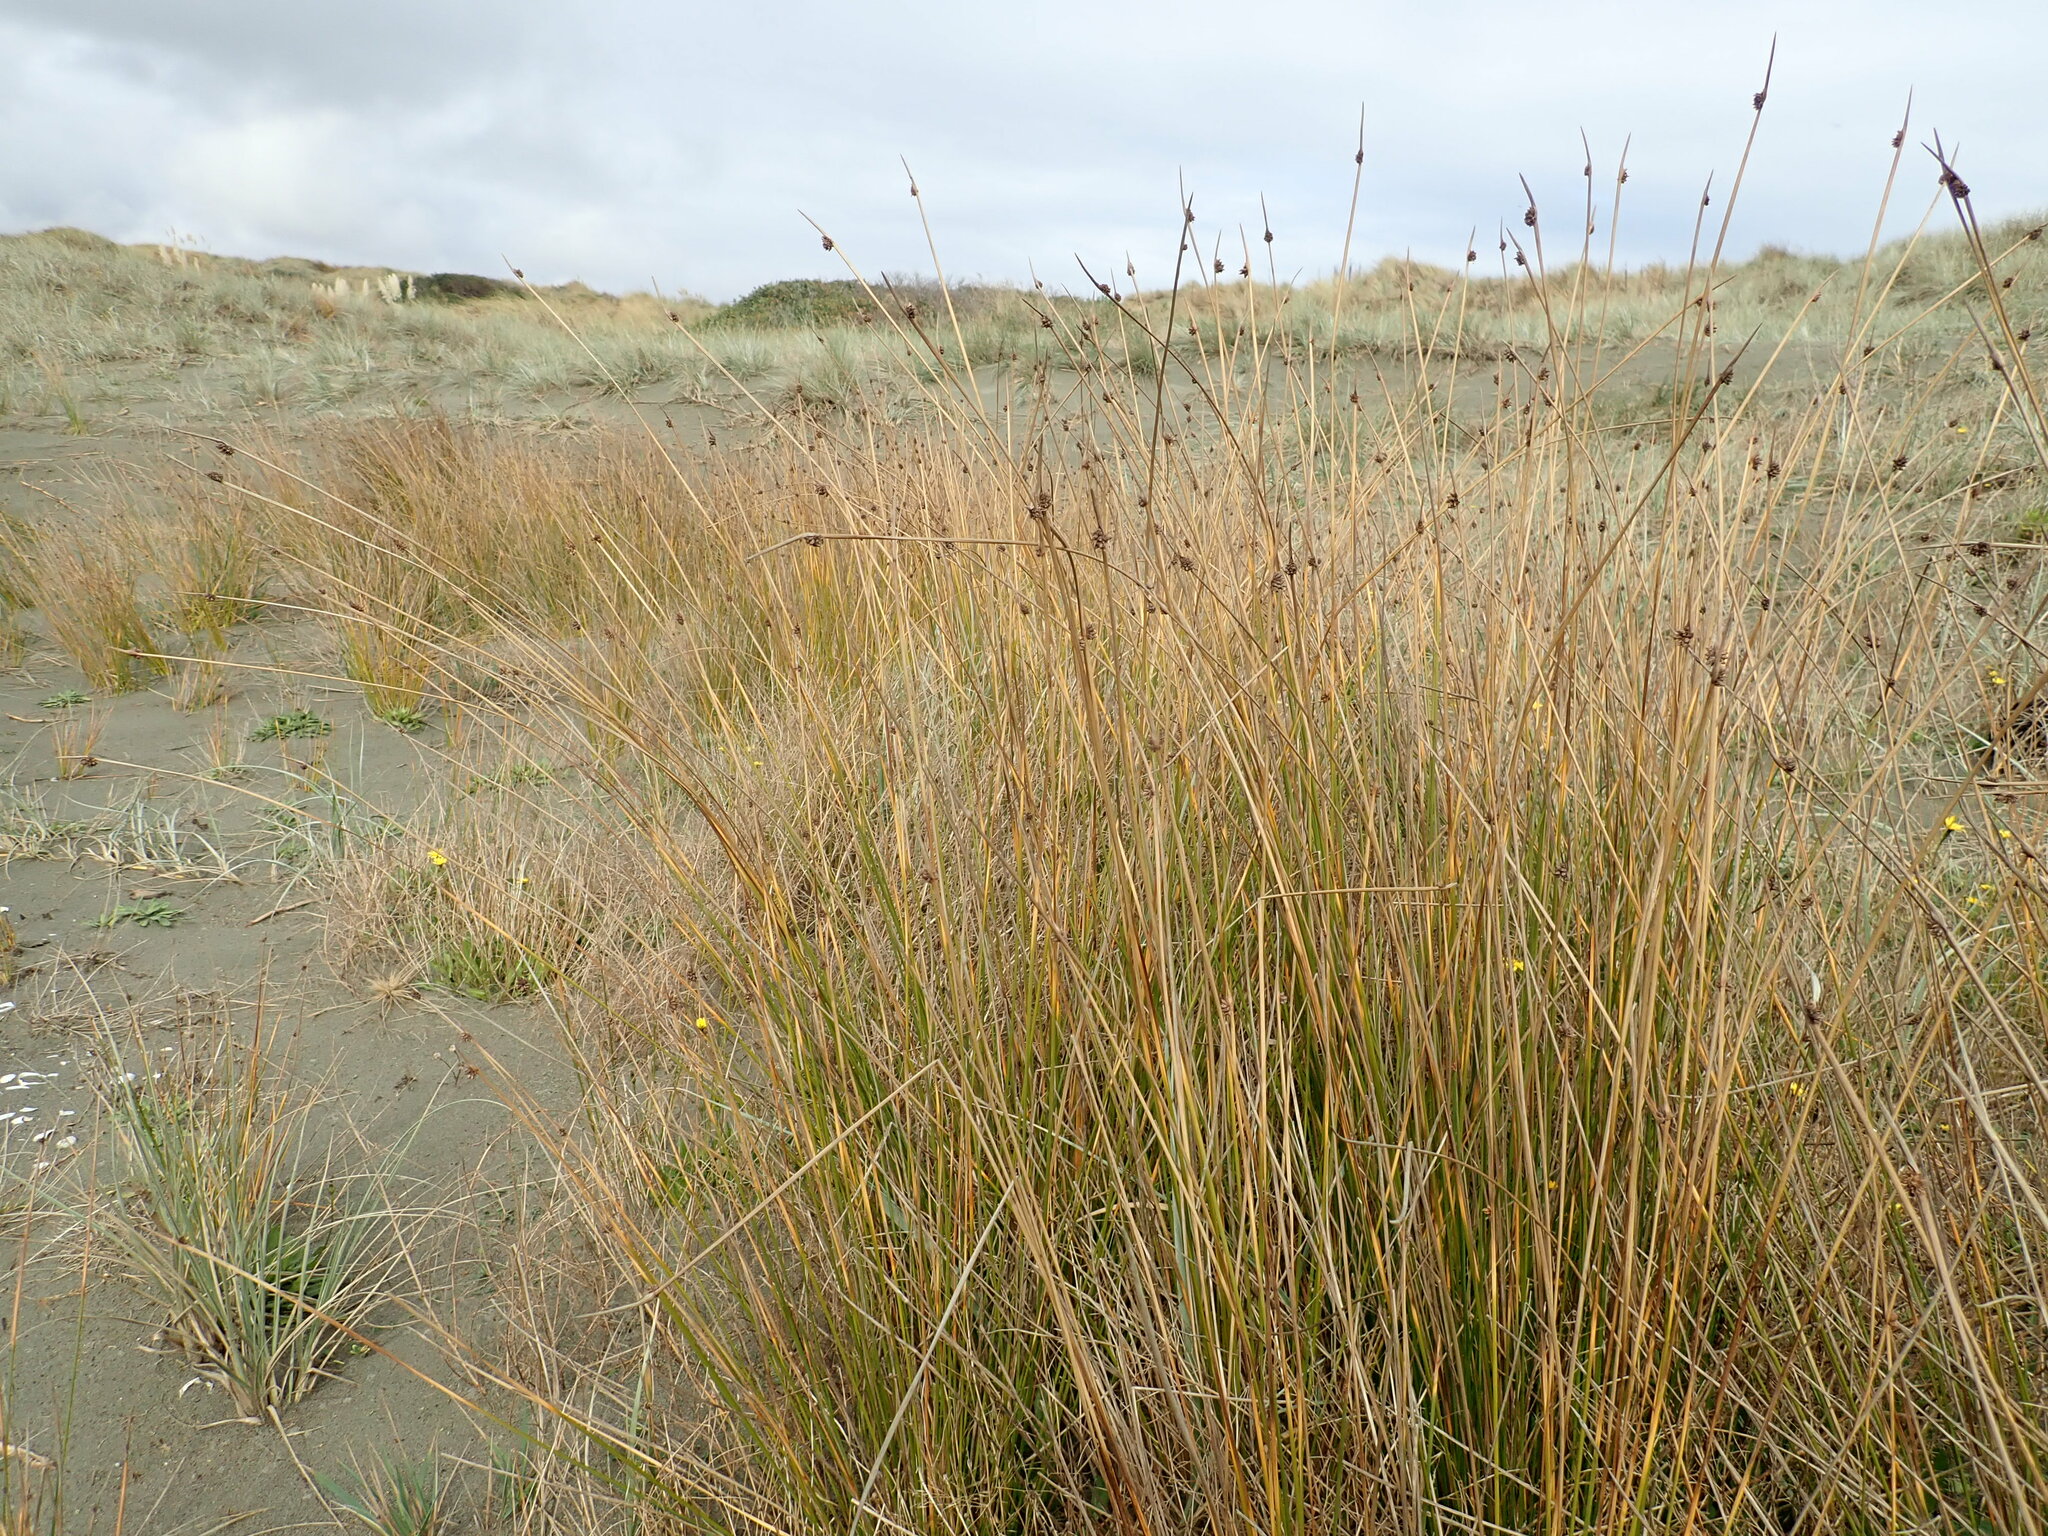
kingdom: Plantae
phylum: Tracheophyta
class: Liliopsida
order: Poales
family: Cyperaceae
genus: Ficinia
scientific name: Ficinia nodosa
